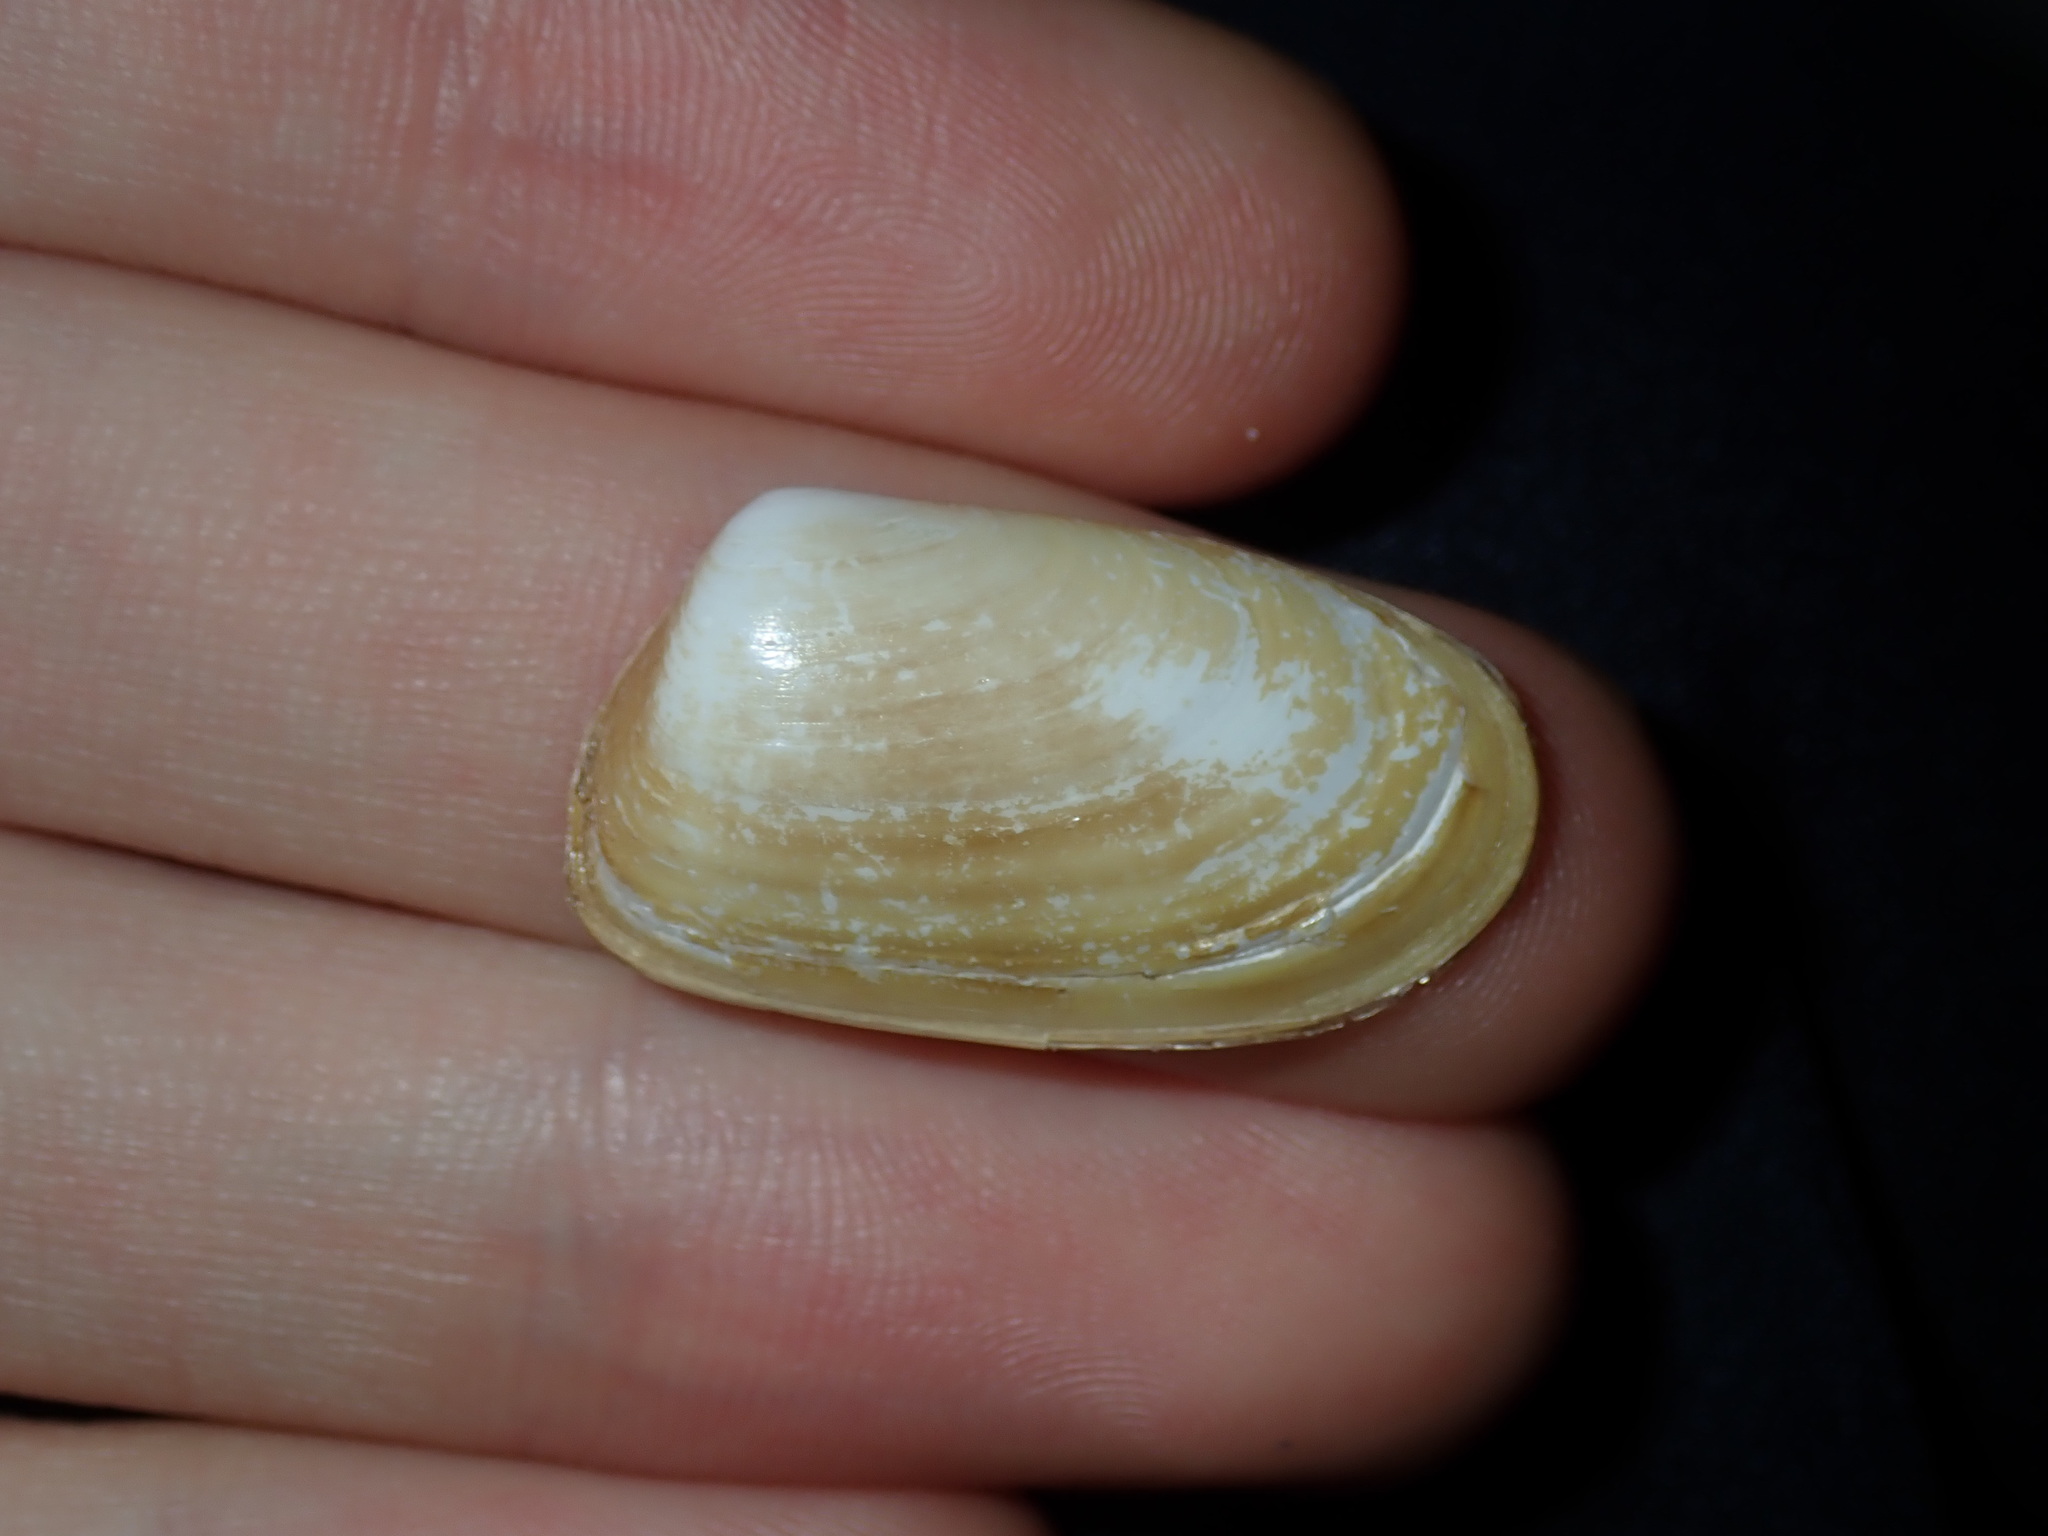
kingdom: Animalia
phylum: Mollusca
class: Bivalvia
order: Venerida
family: Mesodesmatidae
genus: Paphies
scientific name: Paphies angusta
